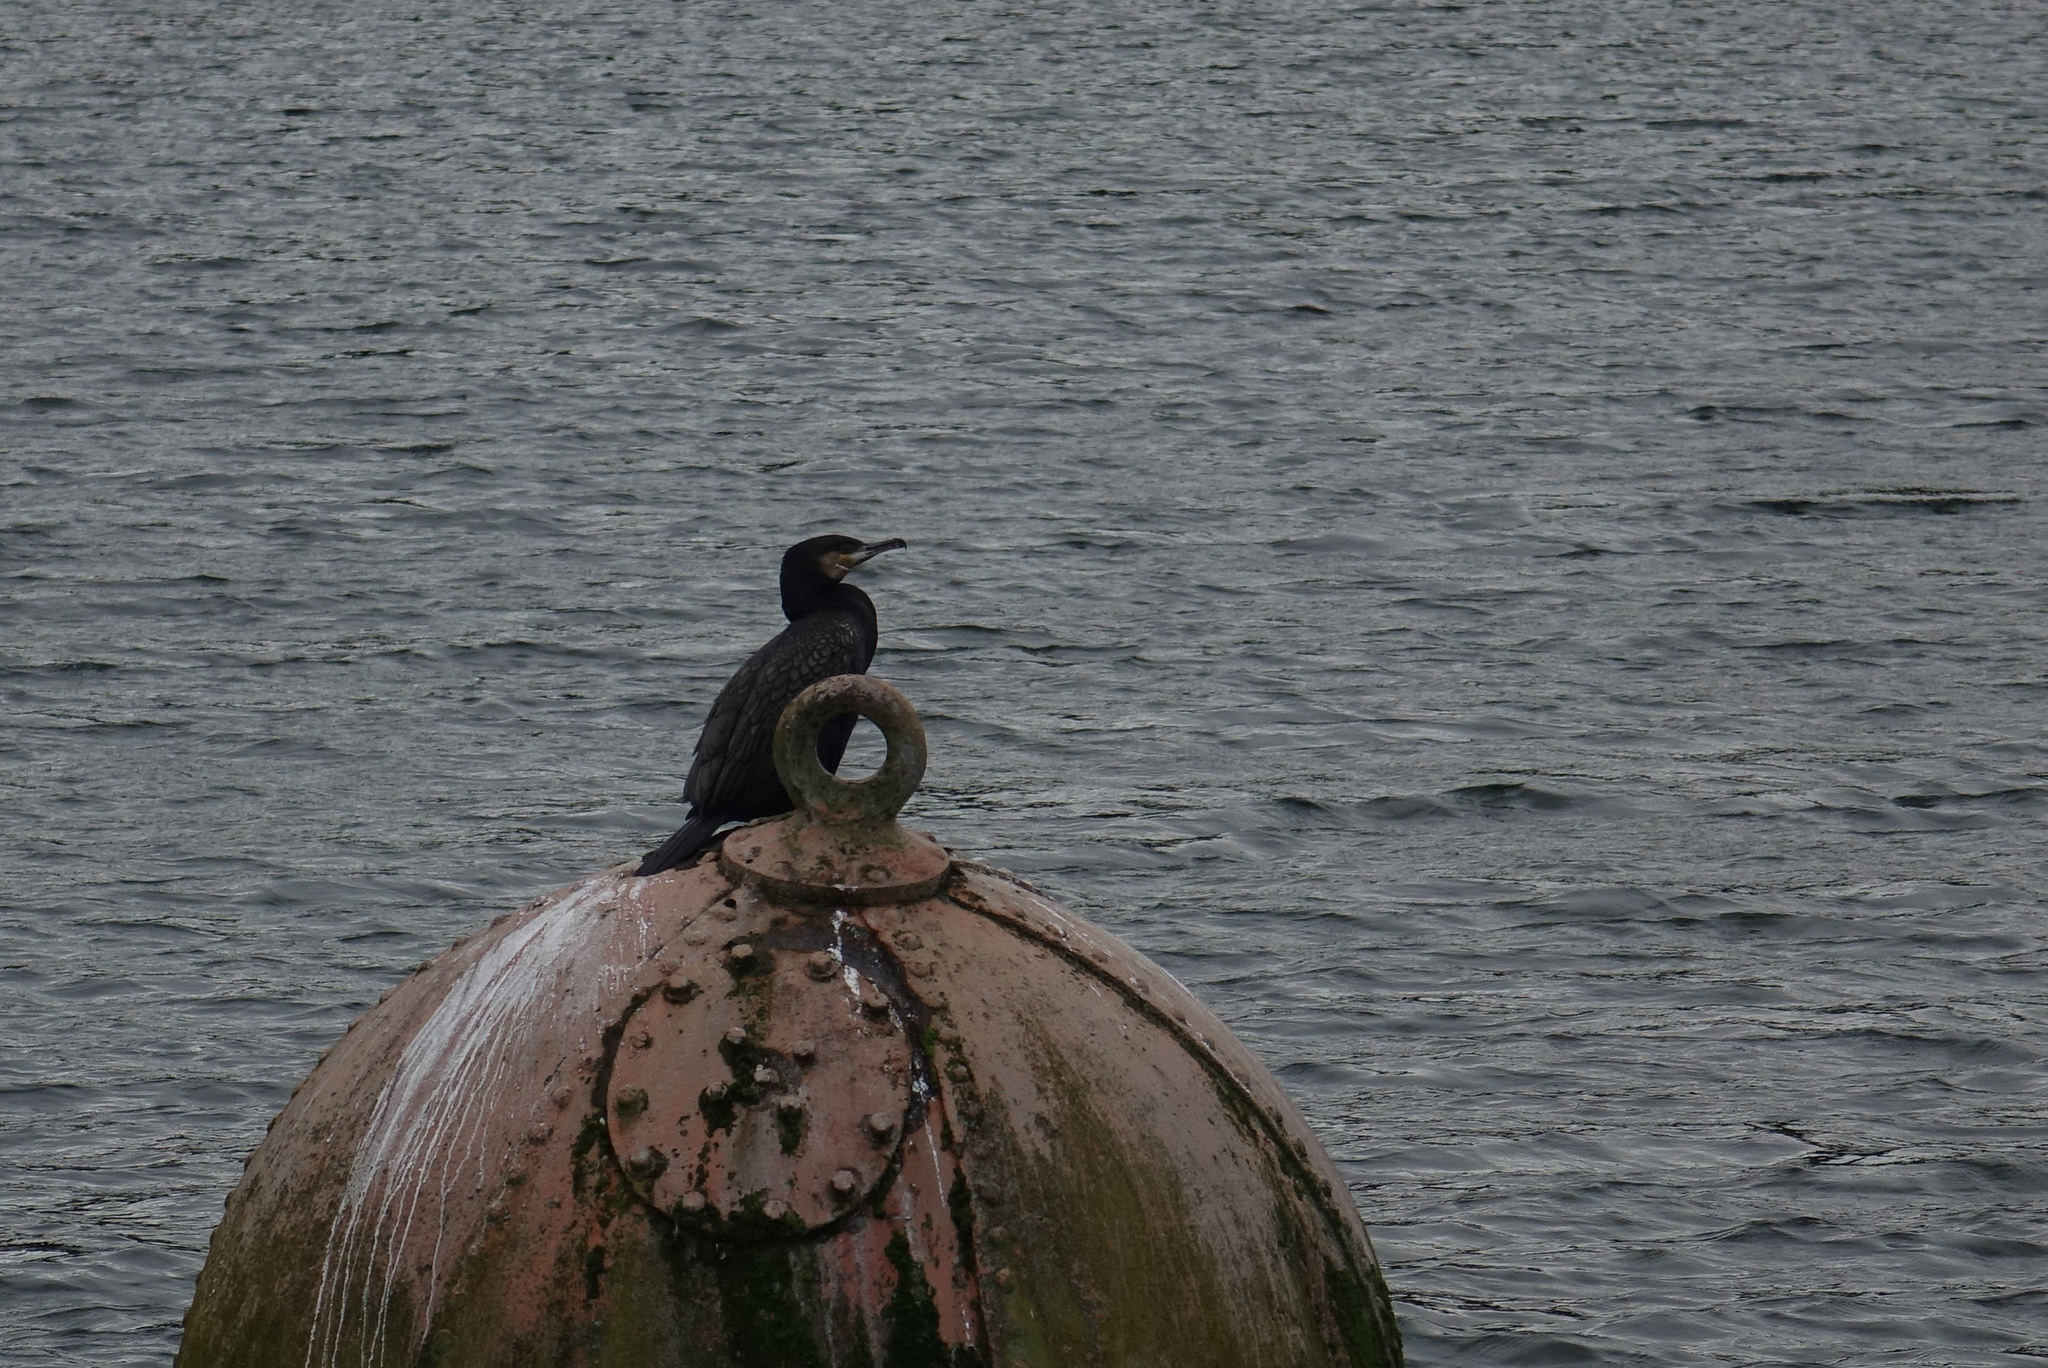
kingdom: Animalia
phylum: Chordata
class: Aves
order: Suliformes
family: Phalacrocoracidae
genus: Phalacrocorax
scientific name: Phalacrocorax carbo
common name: Great cormorant
